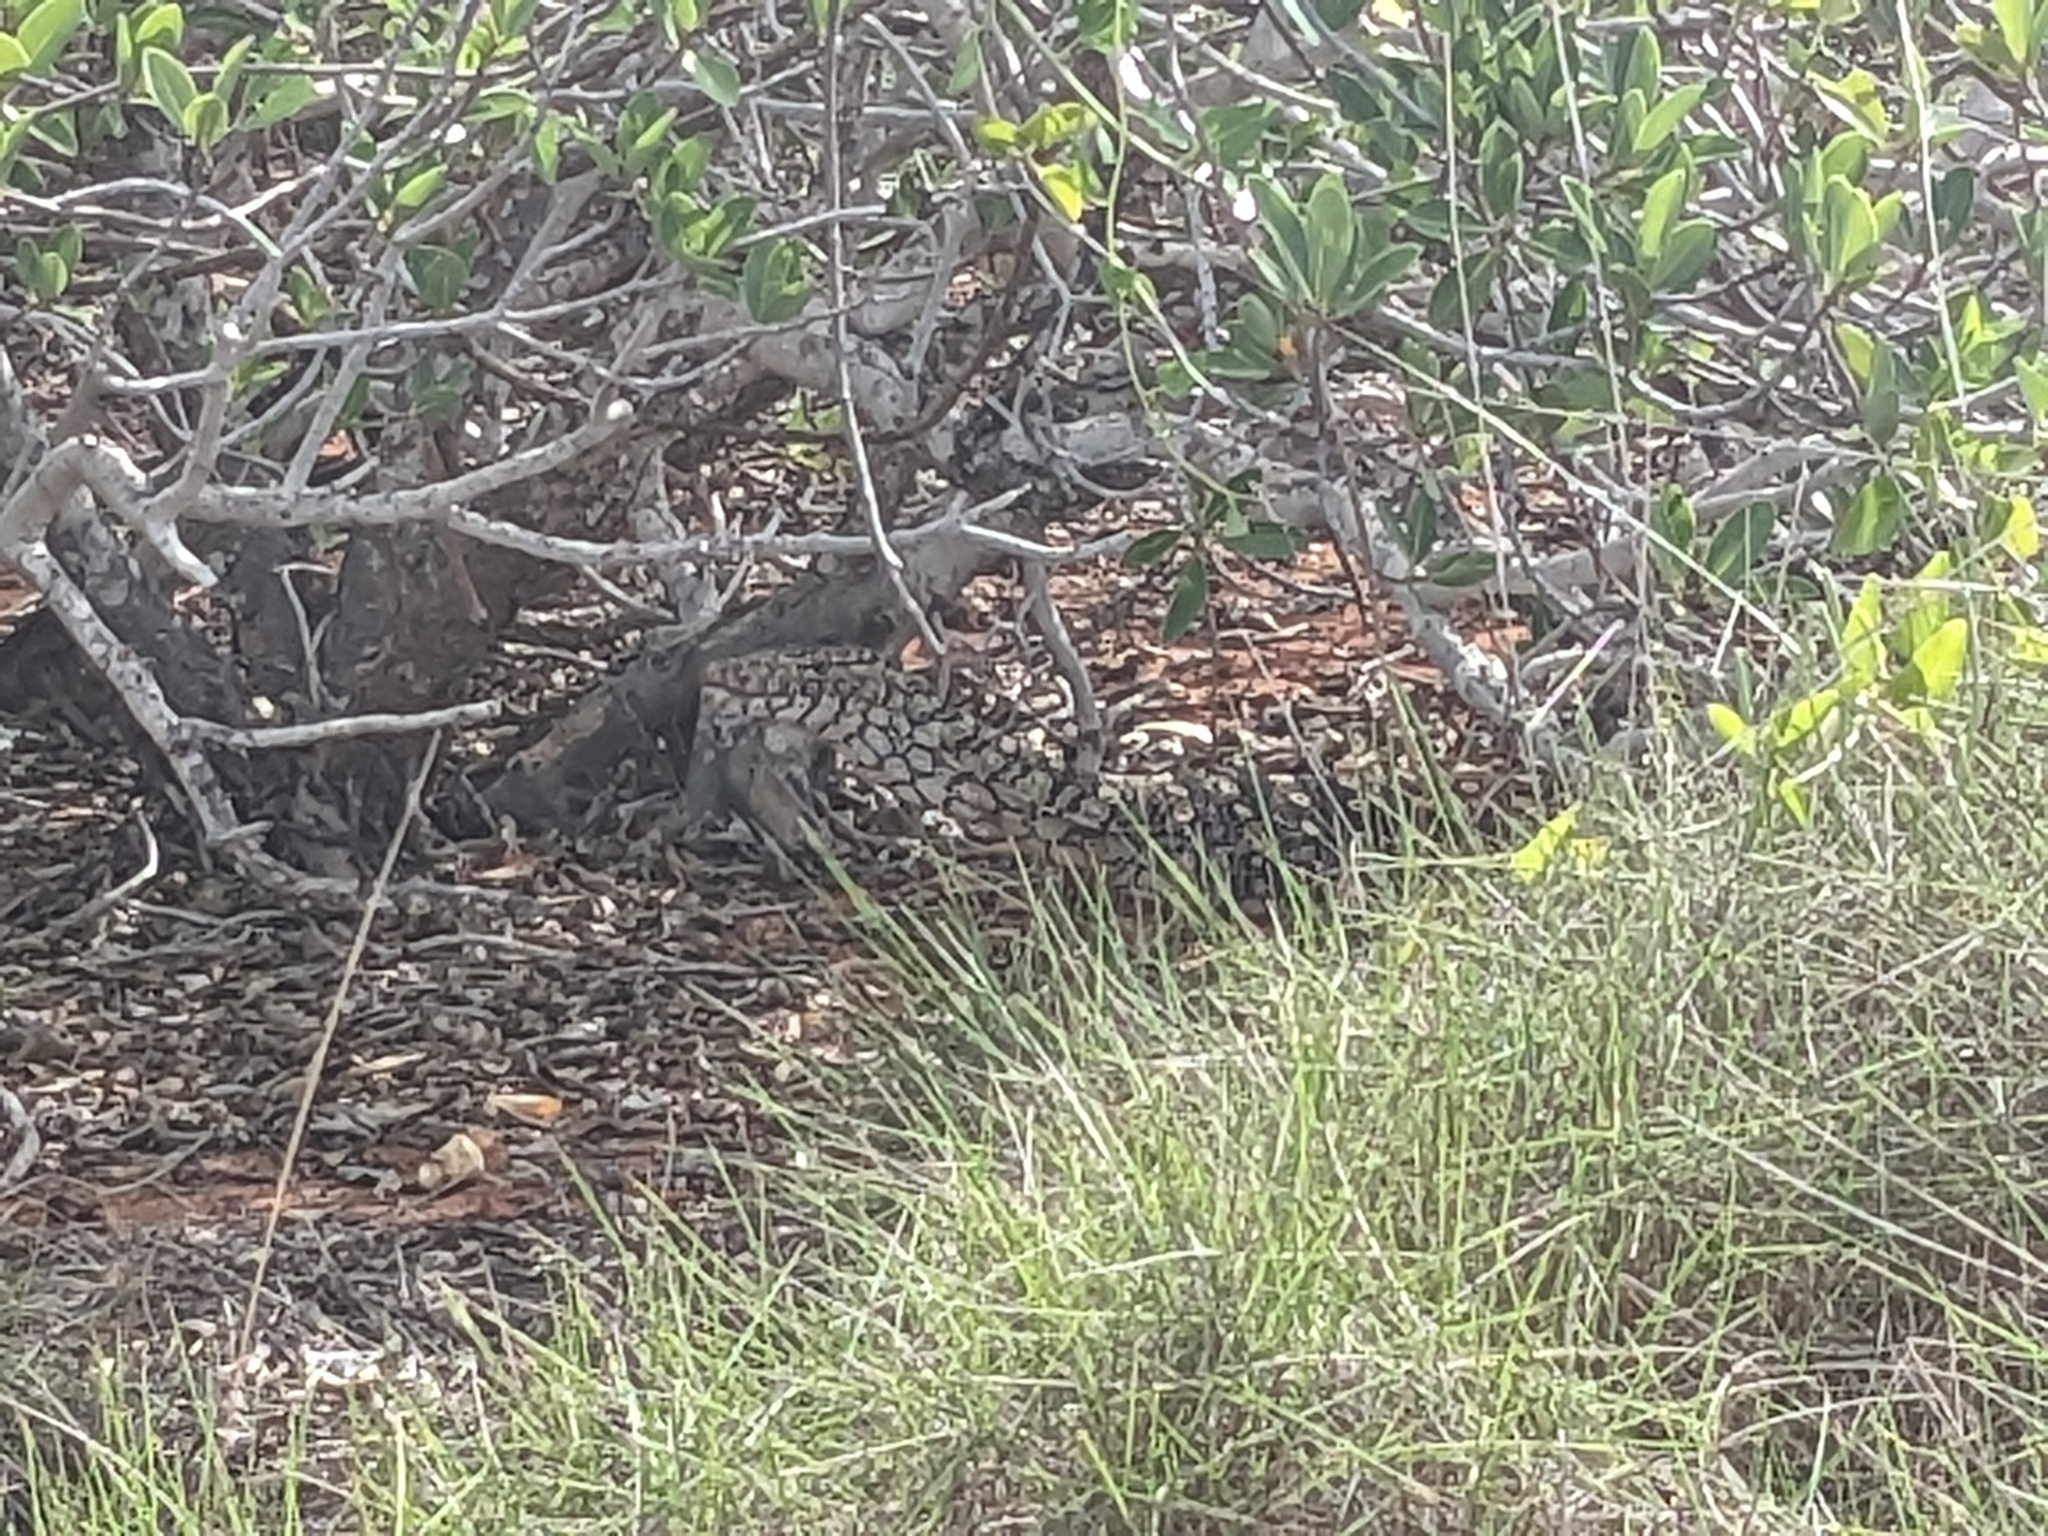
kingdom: Animalia
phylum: Chordata
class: Squamata
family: Varanidae
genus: Varanus
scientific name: Varanus giganteus
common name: Perentie
